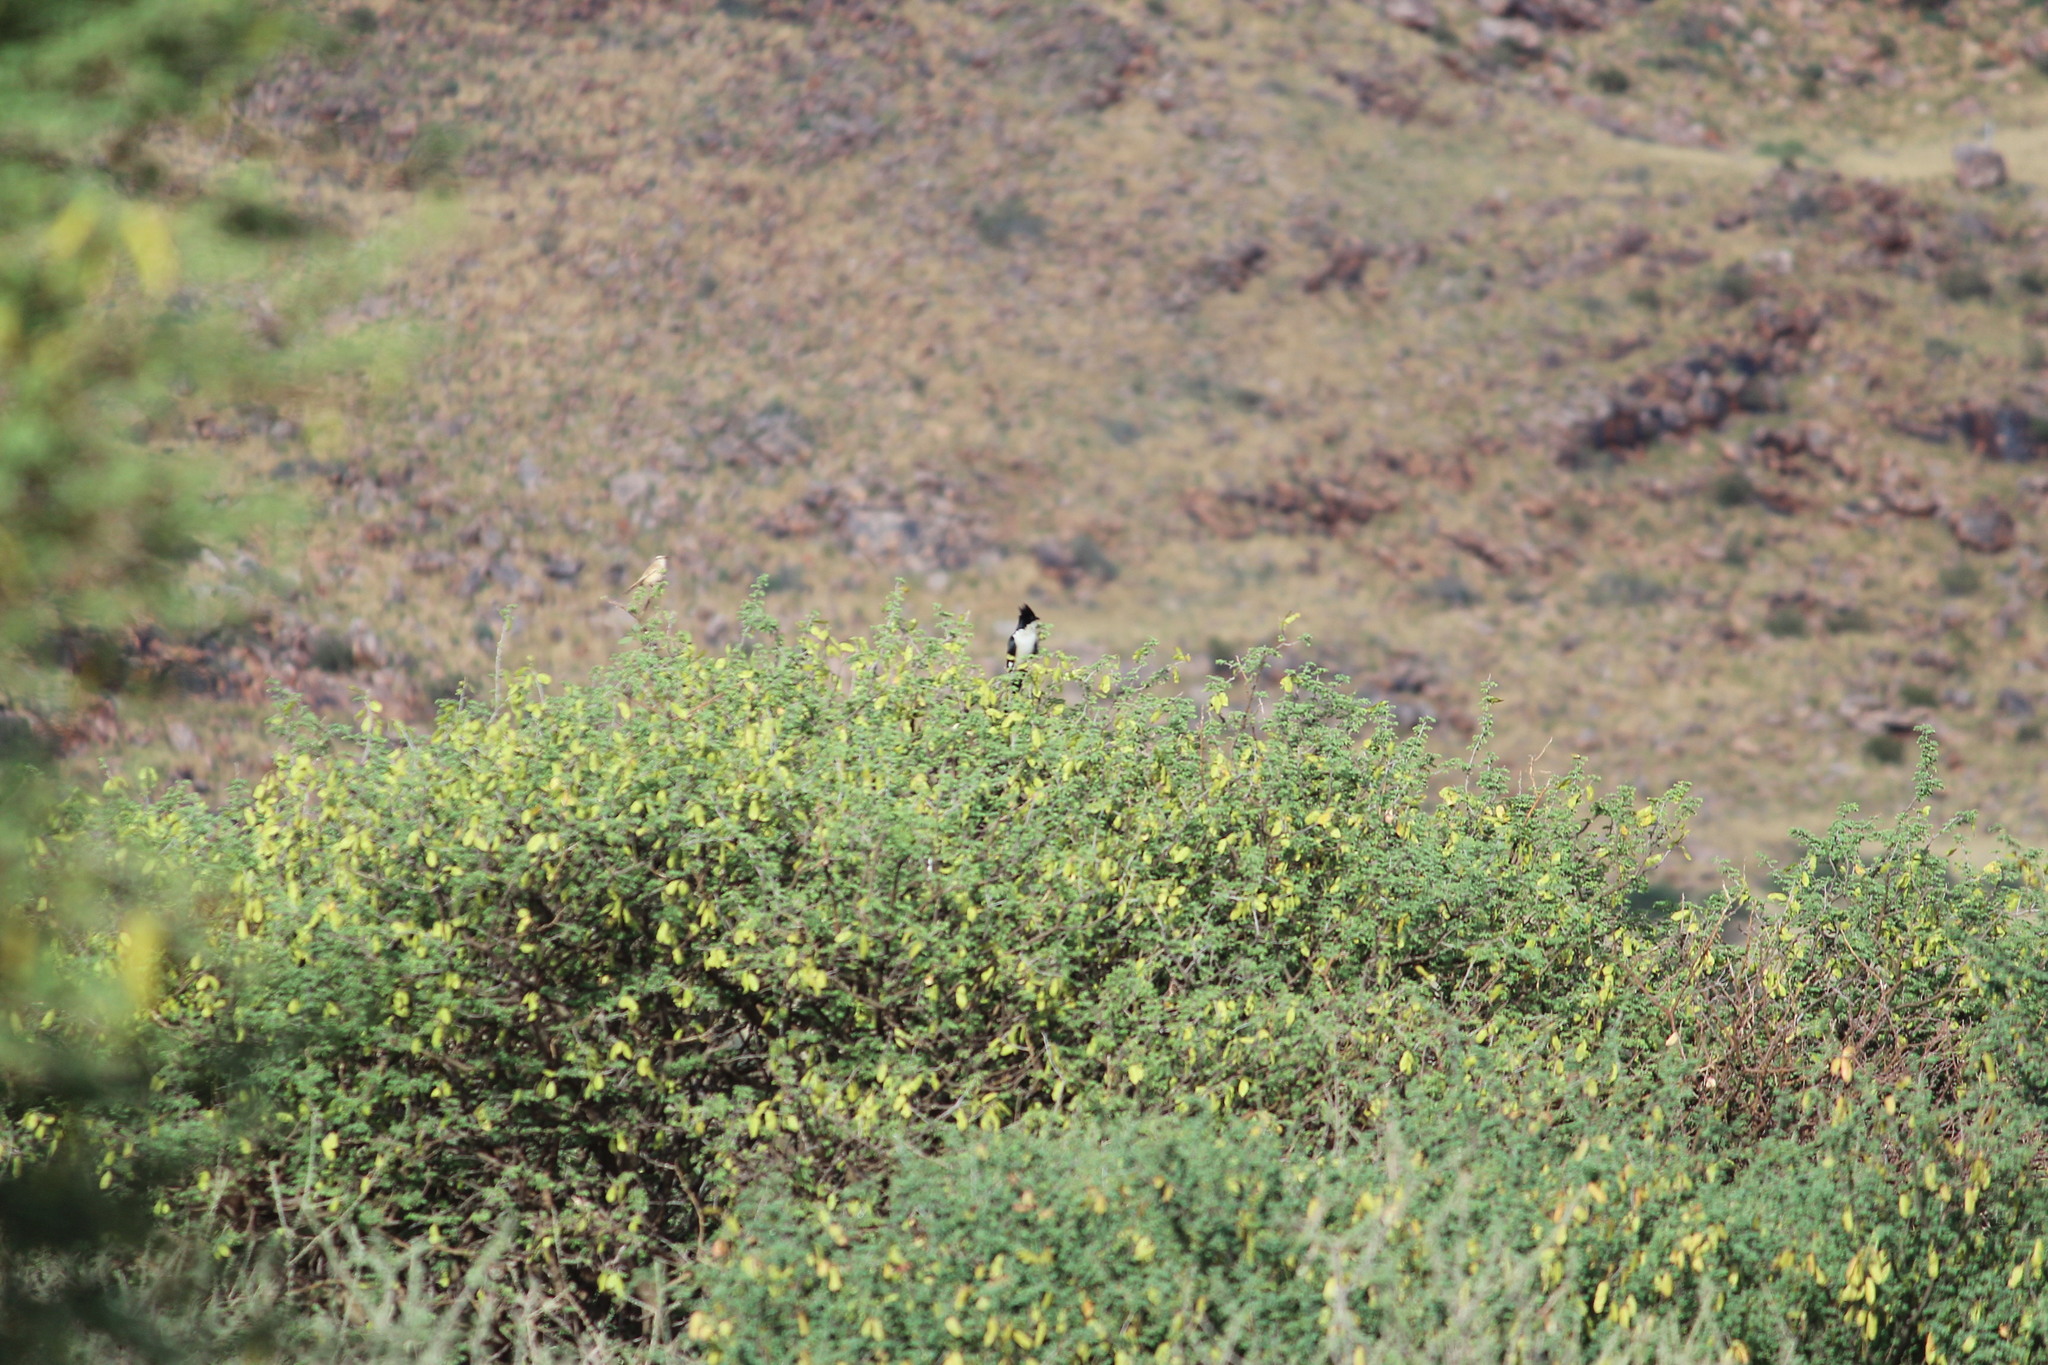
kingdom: Animalia
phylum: Chordata
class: Aves
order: Cuculiformes
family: Cuculidae
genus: Clamator
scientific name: Clamator jacobinus
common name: Jacobin cuckoo
